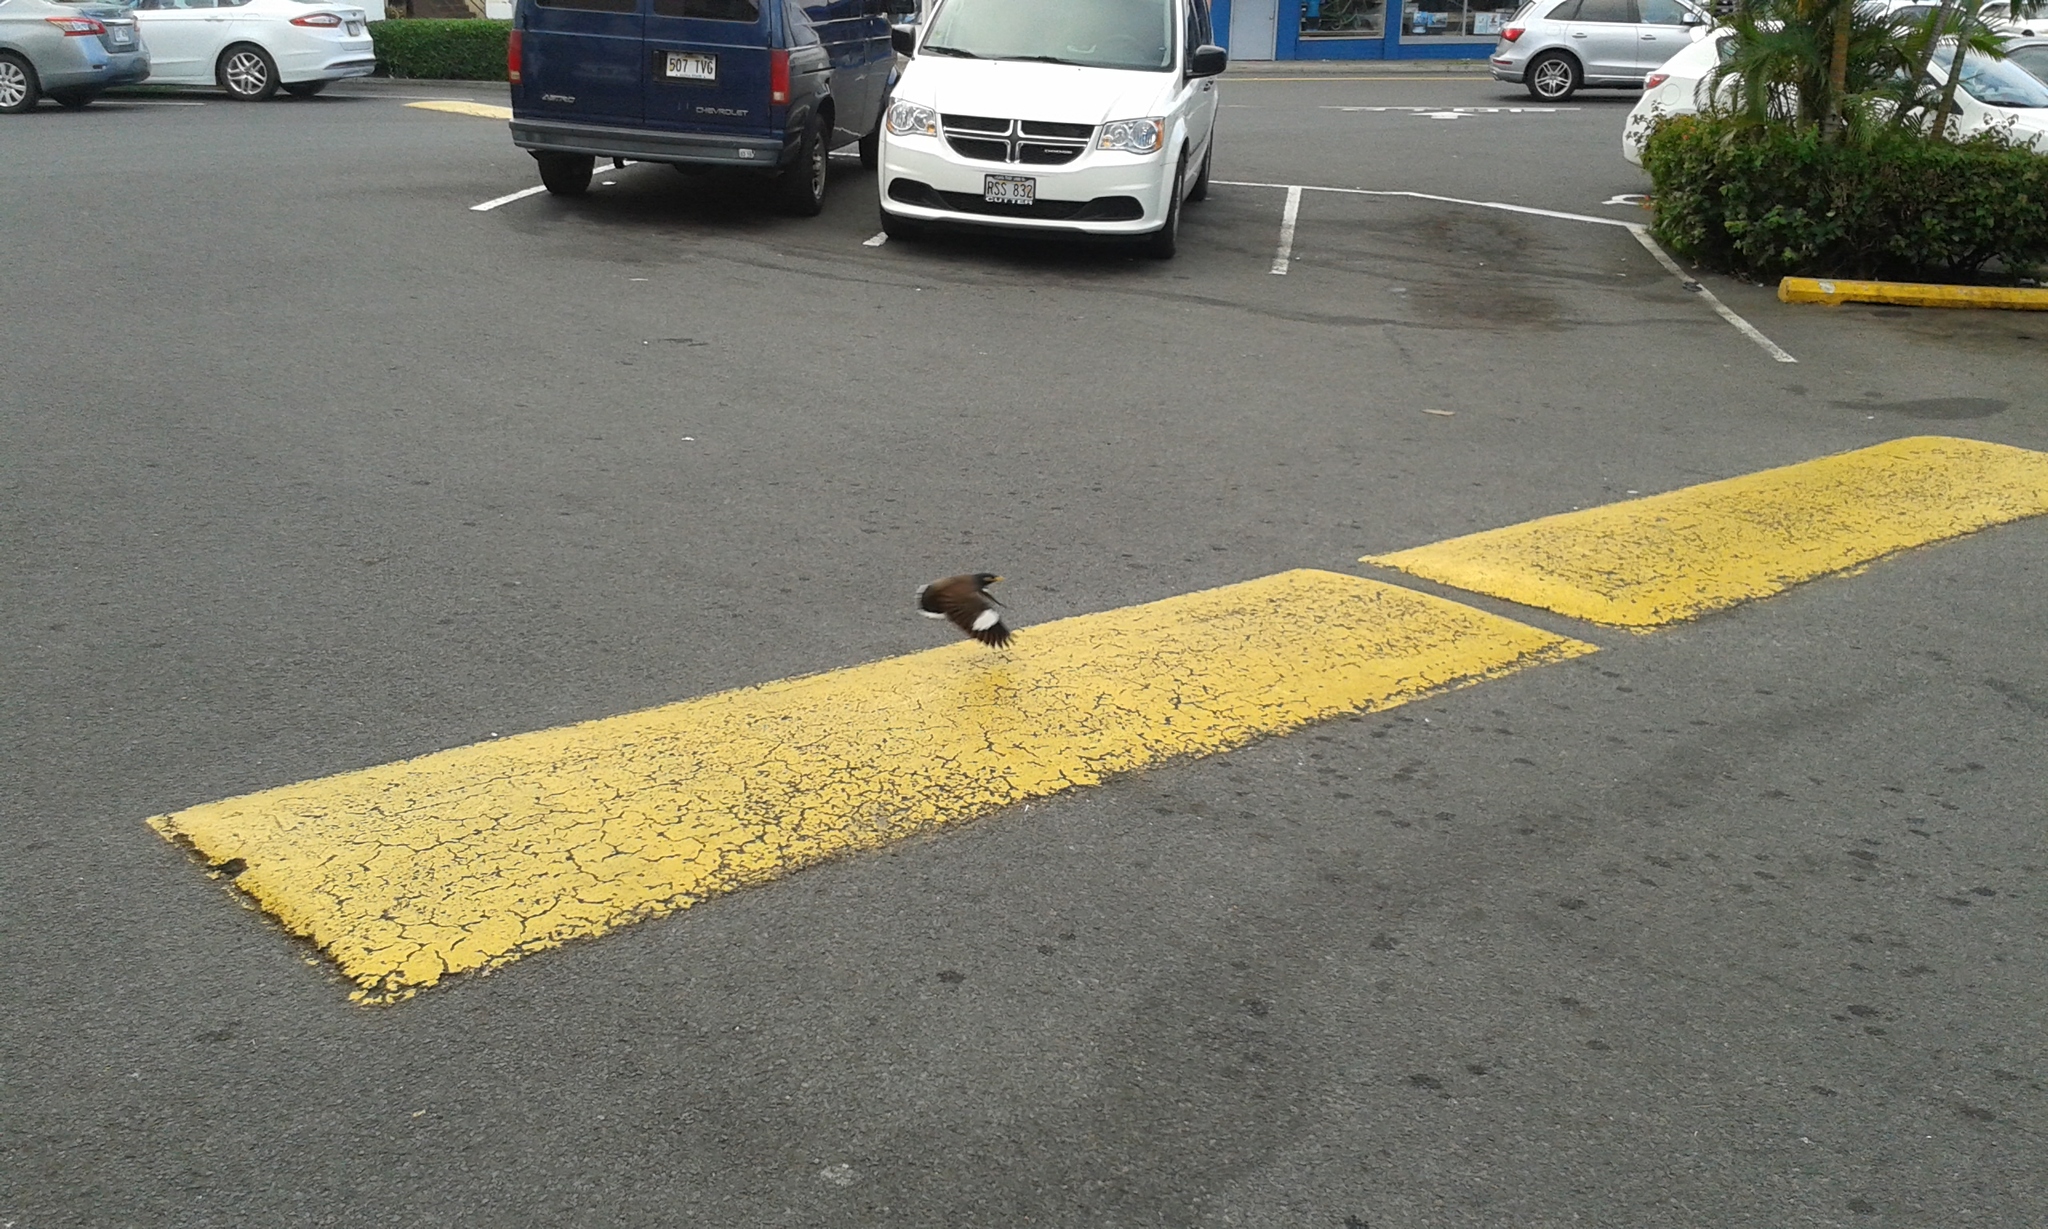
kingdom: Animalia
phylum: Chordata
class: Aves
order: Passeriformes
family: Sturnidae
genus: Acridotheres
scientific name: Acridotheres tristis
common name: Common myna
